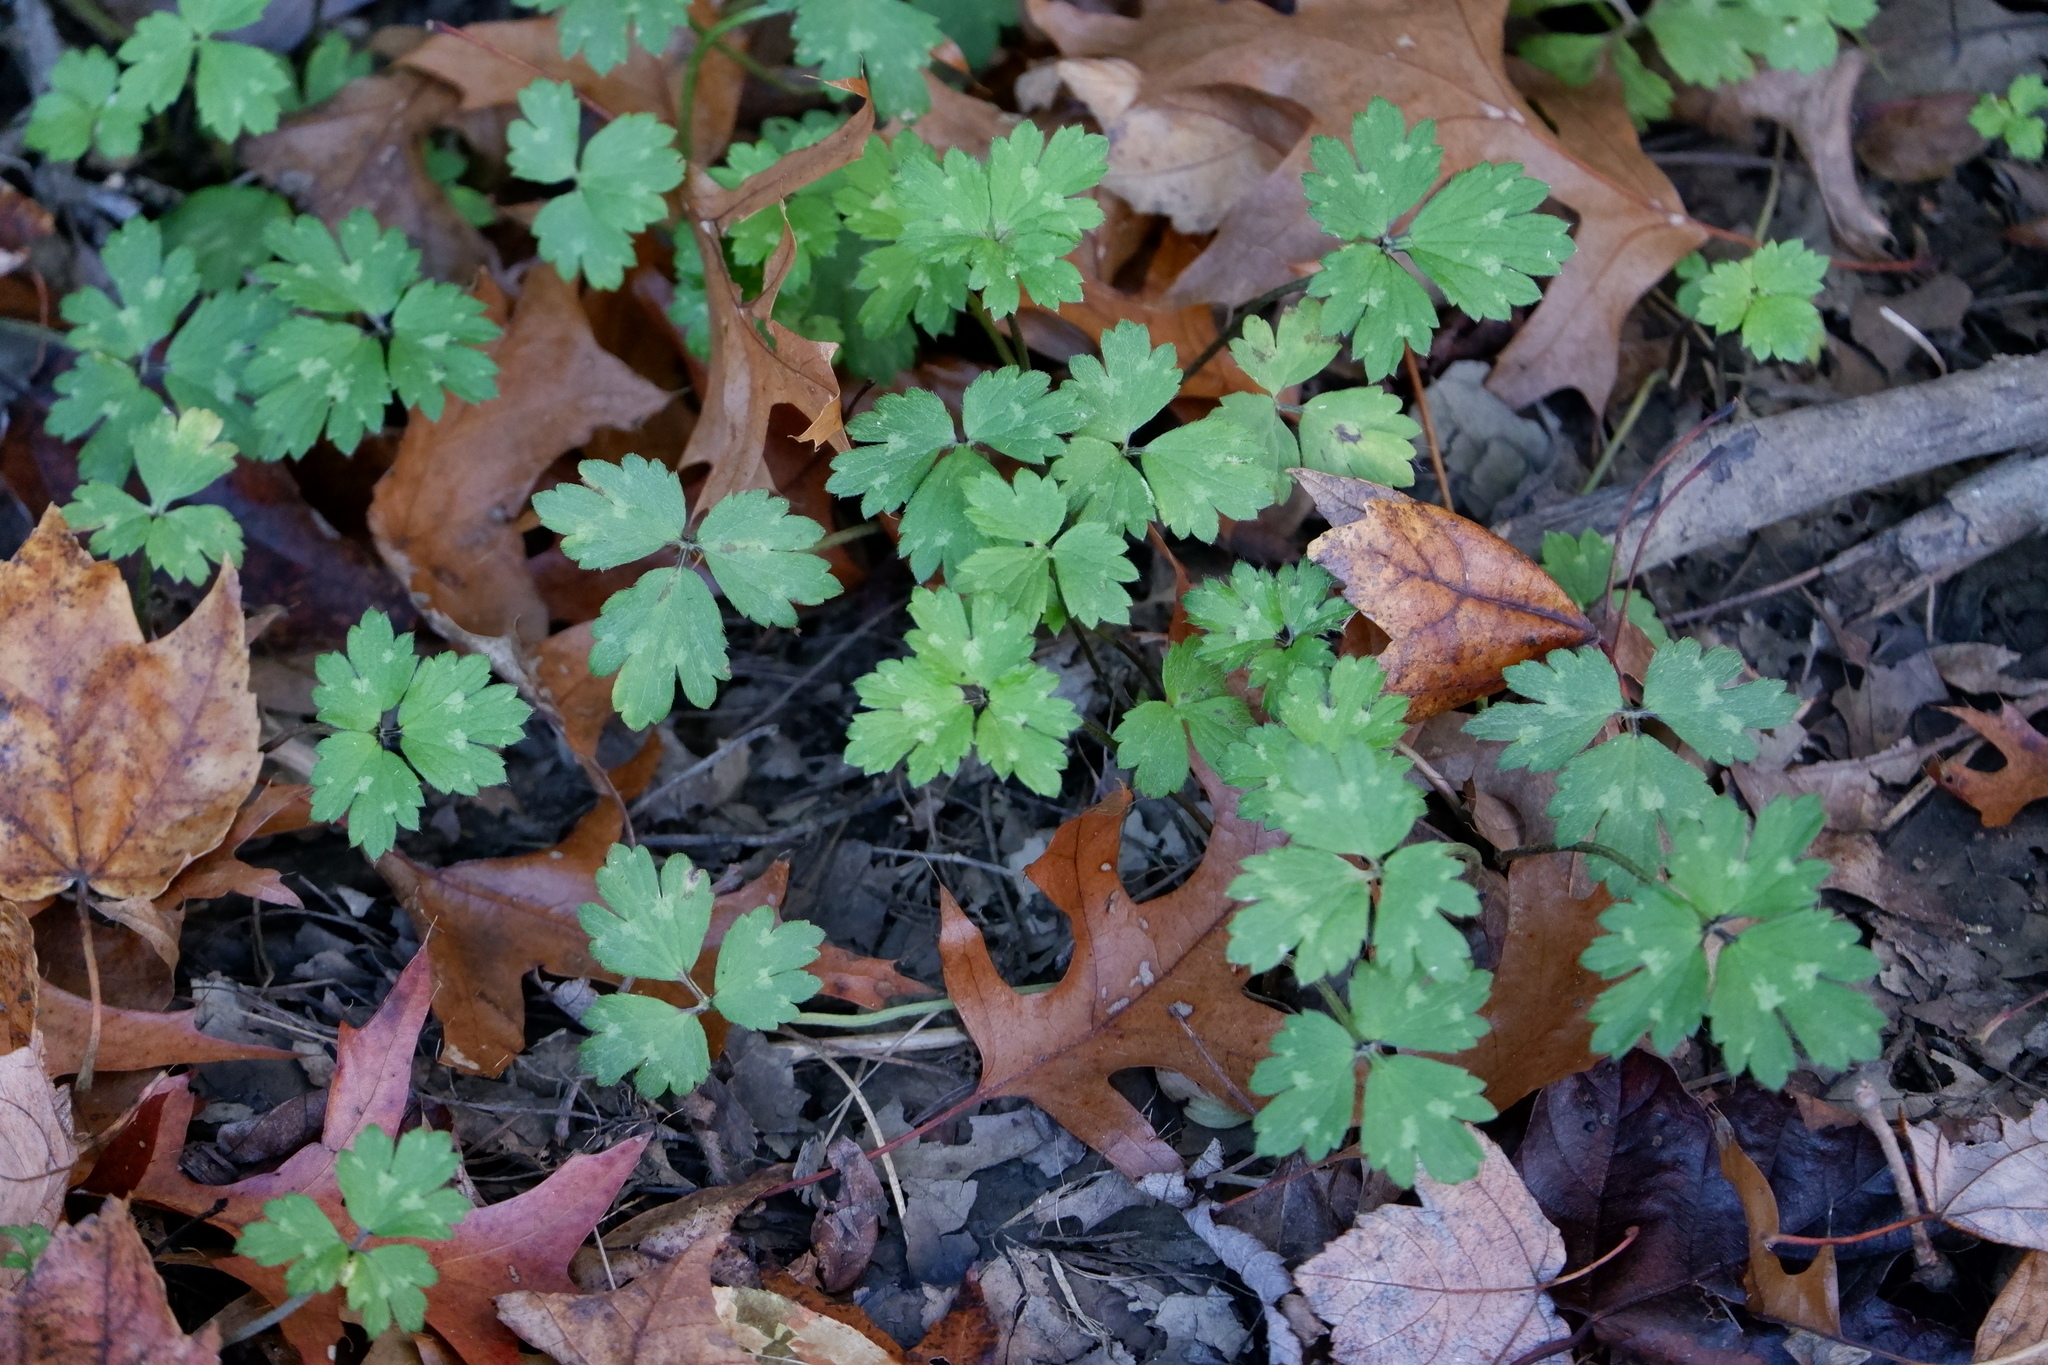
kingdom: Plantae
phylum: Tracheophyta
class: Magnoliopsida
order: Ranunculales
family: Ranunculaceae
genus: Ranunculus
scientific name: Ranunculus repens
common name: Creeping buttercup
